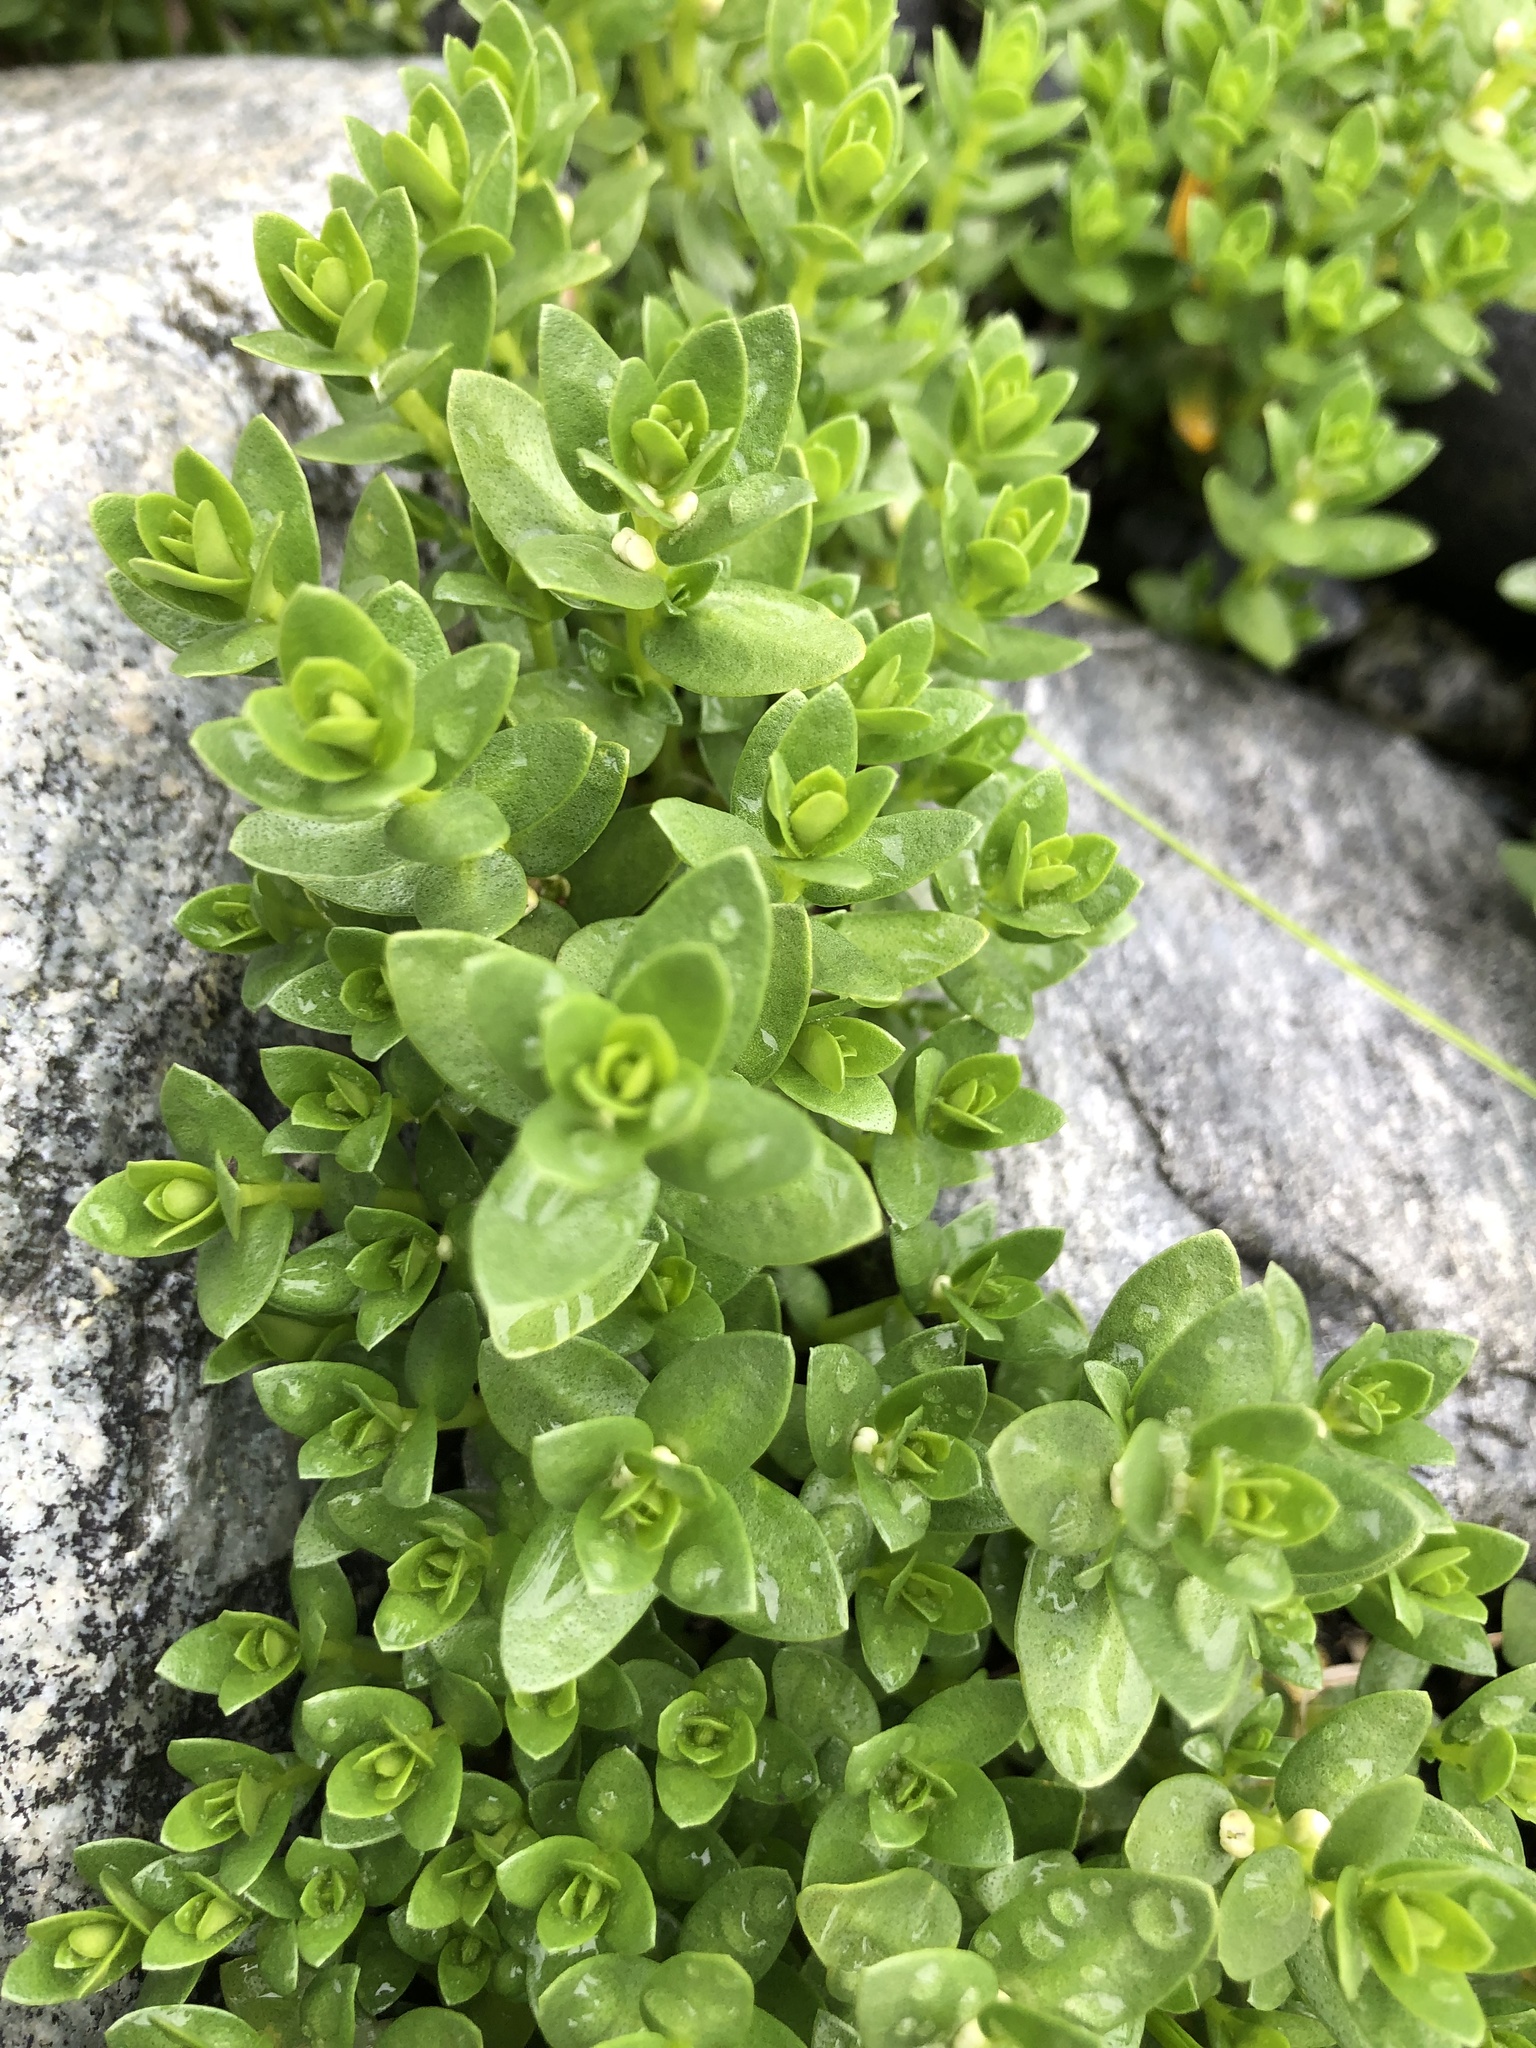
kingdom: Plantae
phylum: Tracheophyta
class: Magnoliopsida
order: Caryophyllales
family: Caryophyllaceae
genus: Honckenya
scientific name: Honckenya peploides
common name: Sea sandwort
